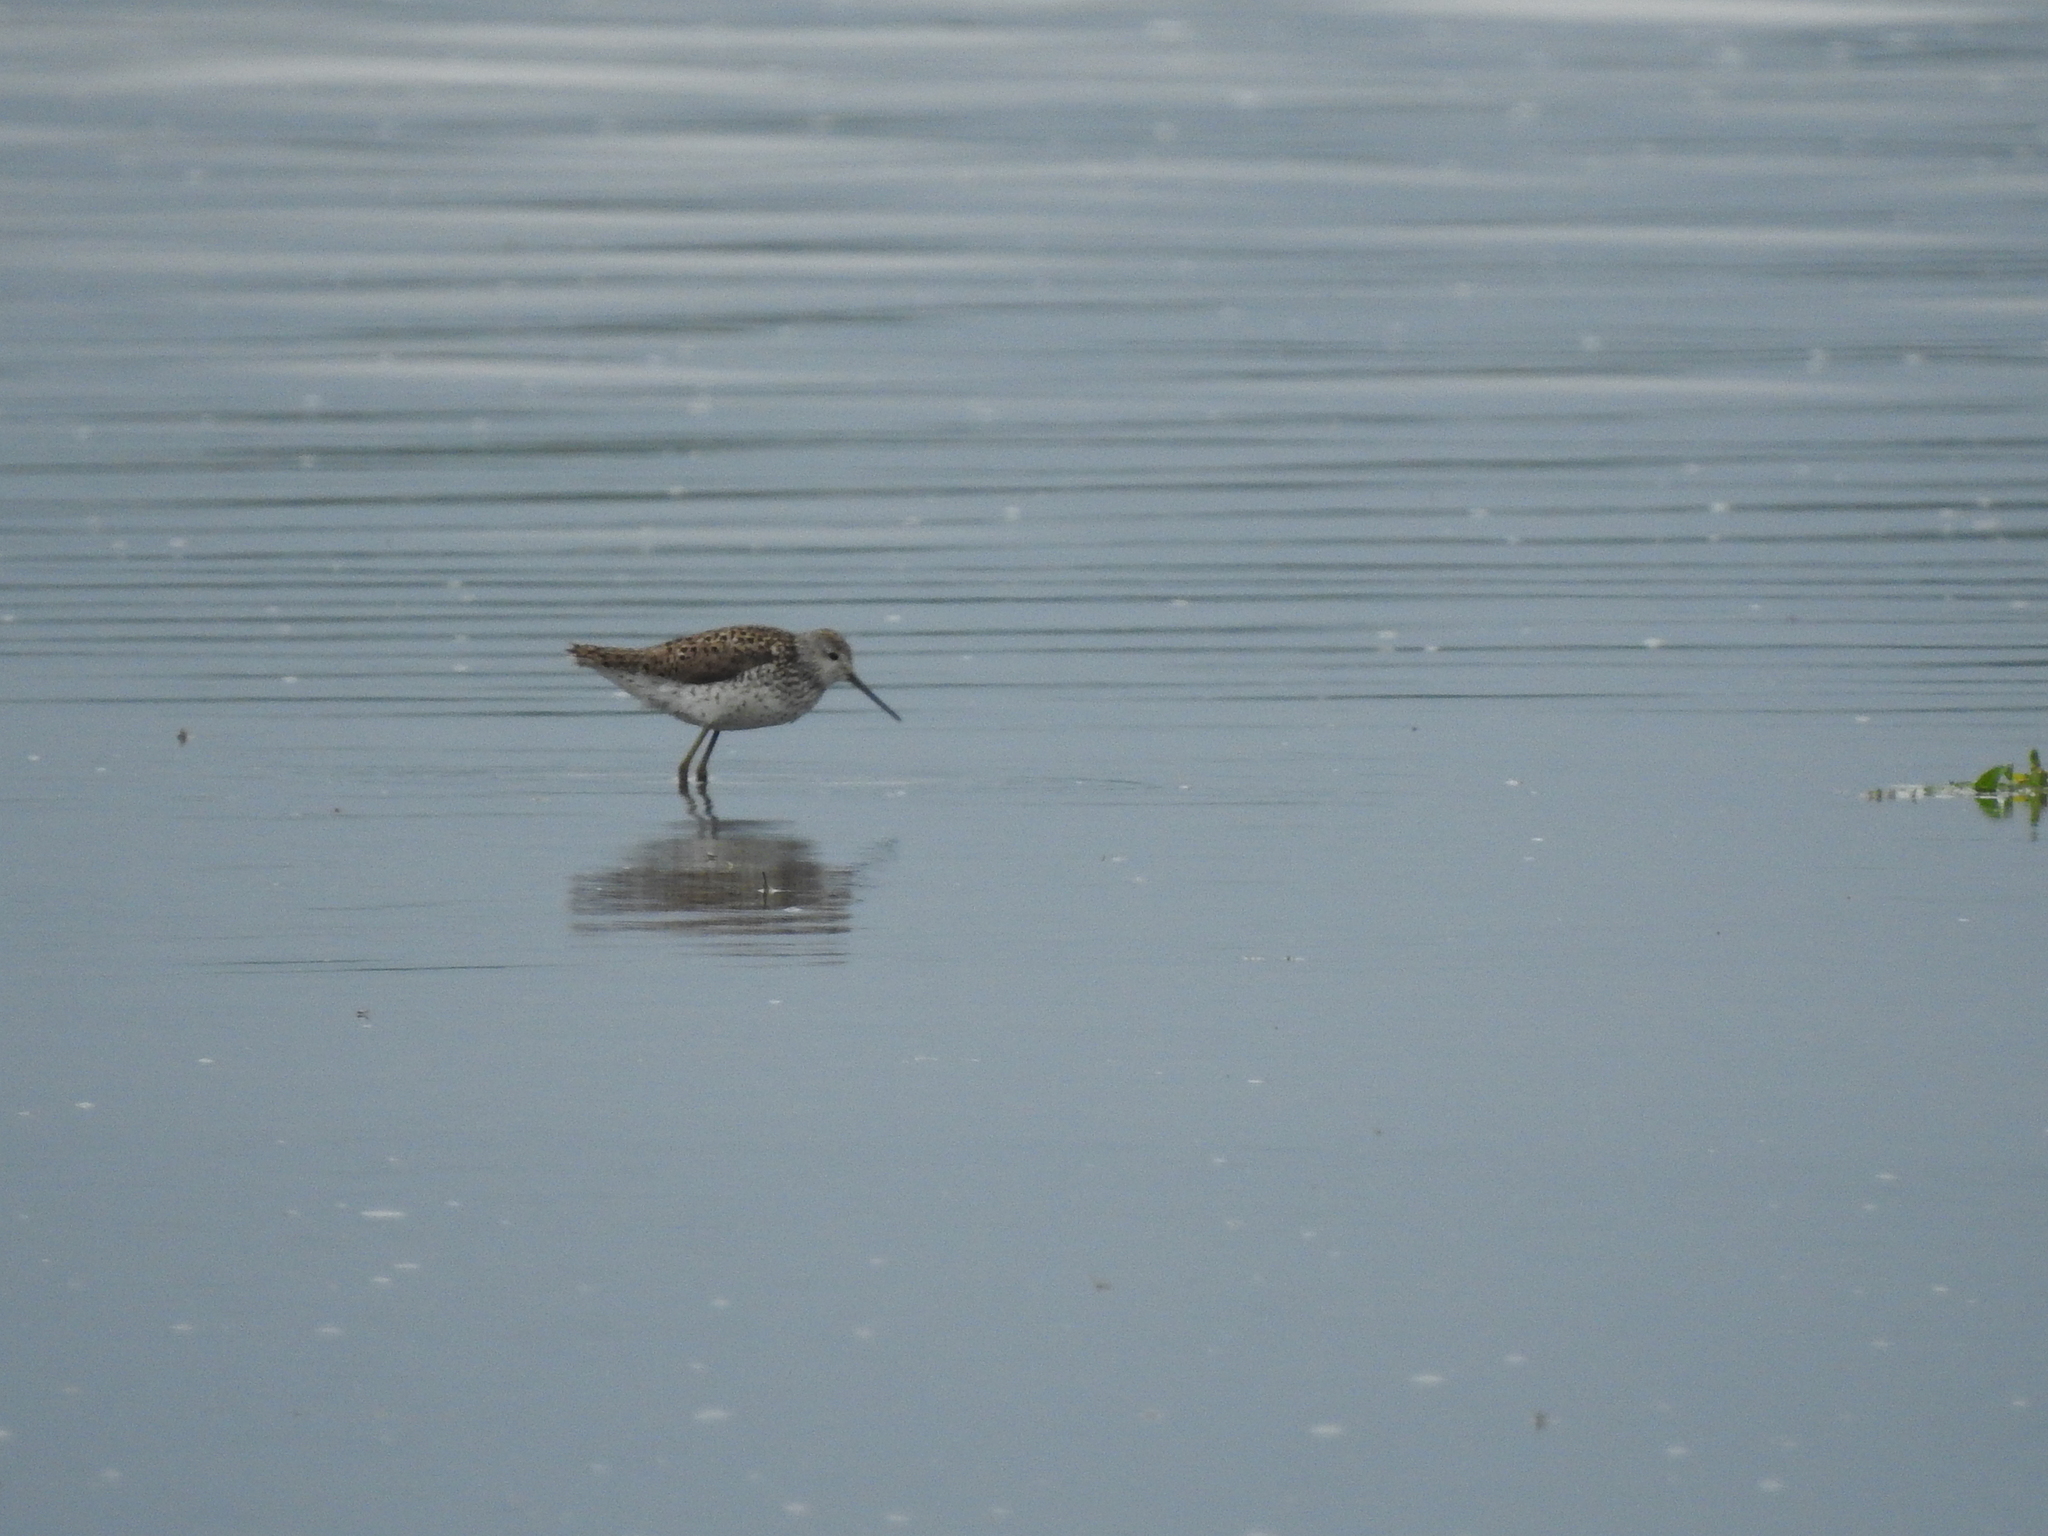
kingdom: Animalia
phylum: Chordata
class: Aves
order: Charadriiformes
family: Scolopacidae
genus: Tringa
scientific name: Tringa stagnatilis
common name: Marsh sandpiper
